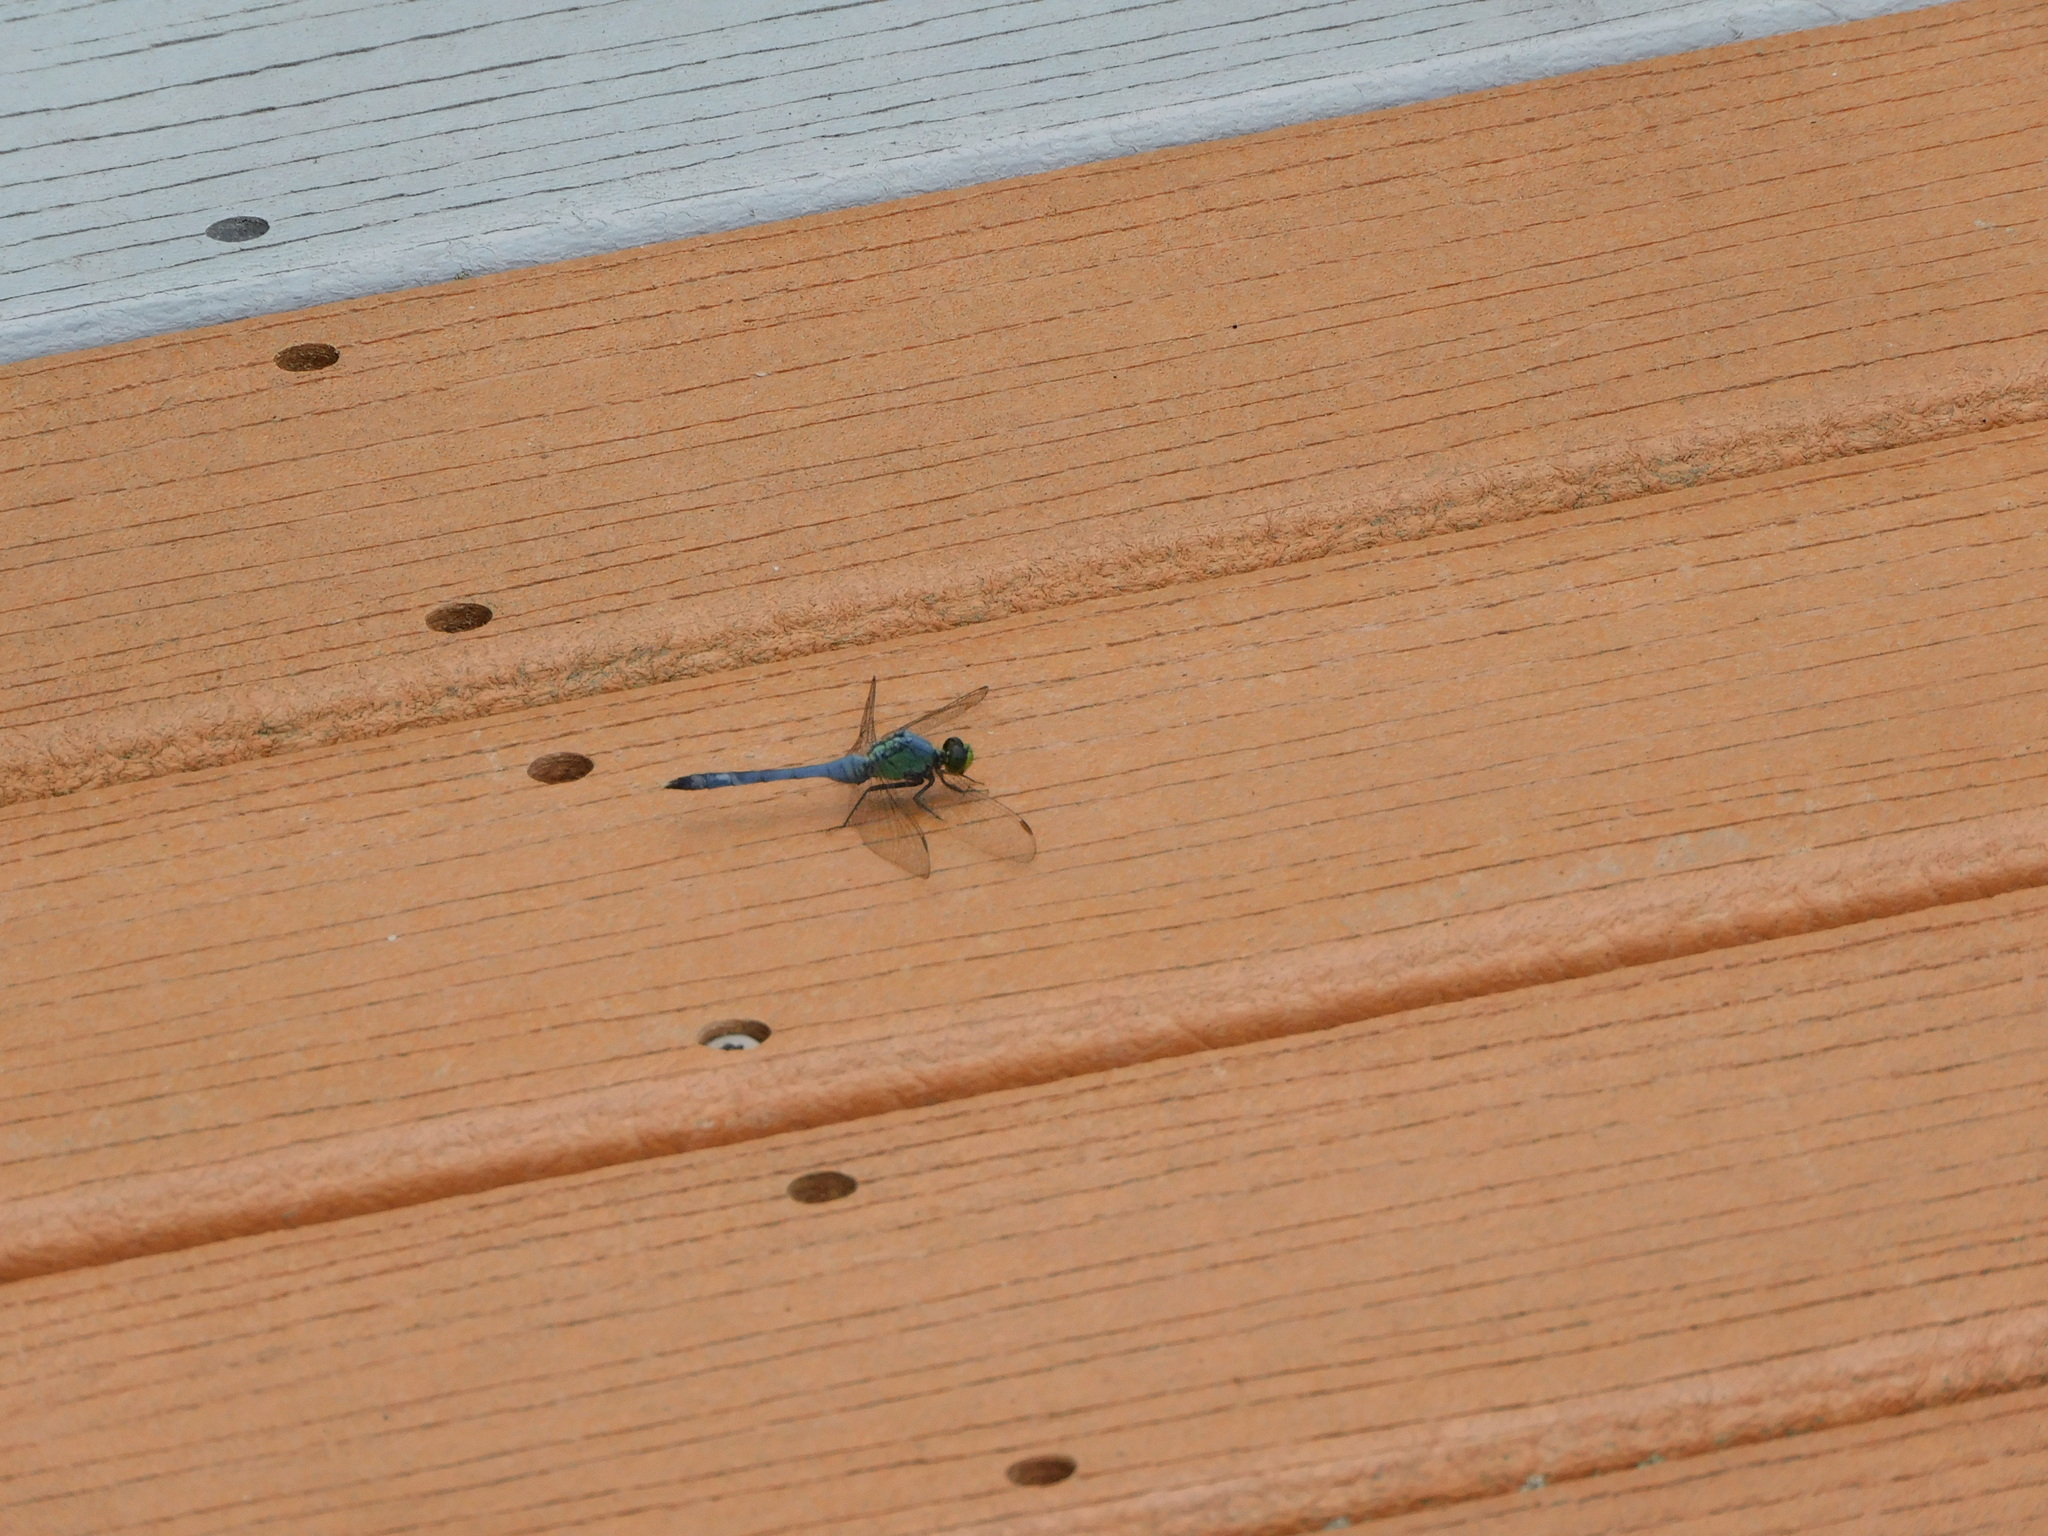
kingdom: Animalia
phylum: Arthropoda
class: Insecta
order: Odonata
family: Libellulidae
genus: Erythemis
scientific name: Erythemis simplicicollis
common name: Eastern pondhawk
